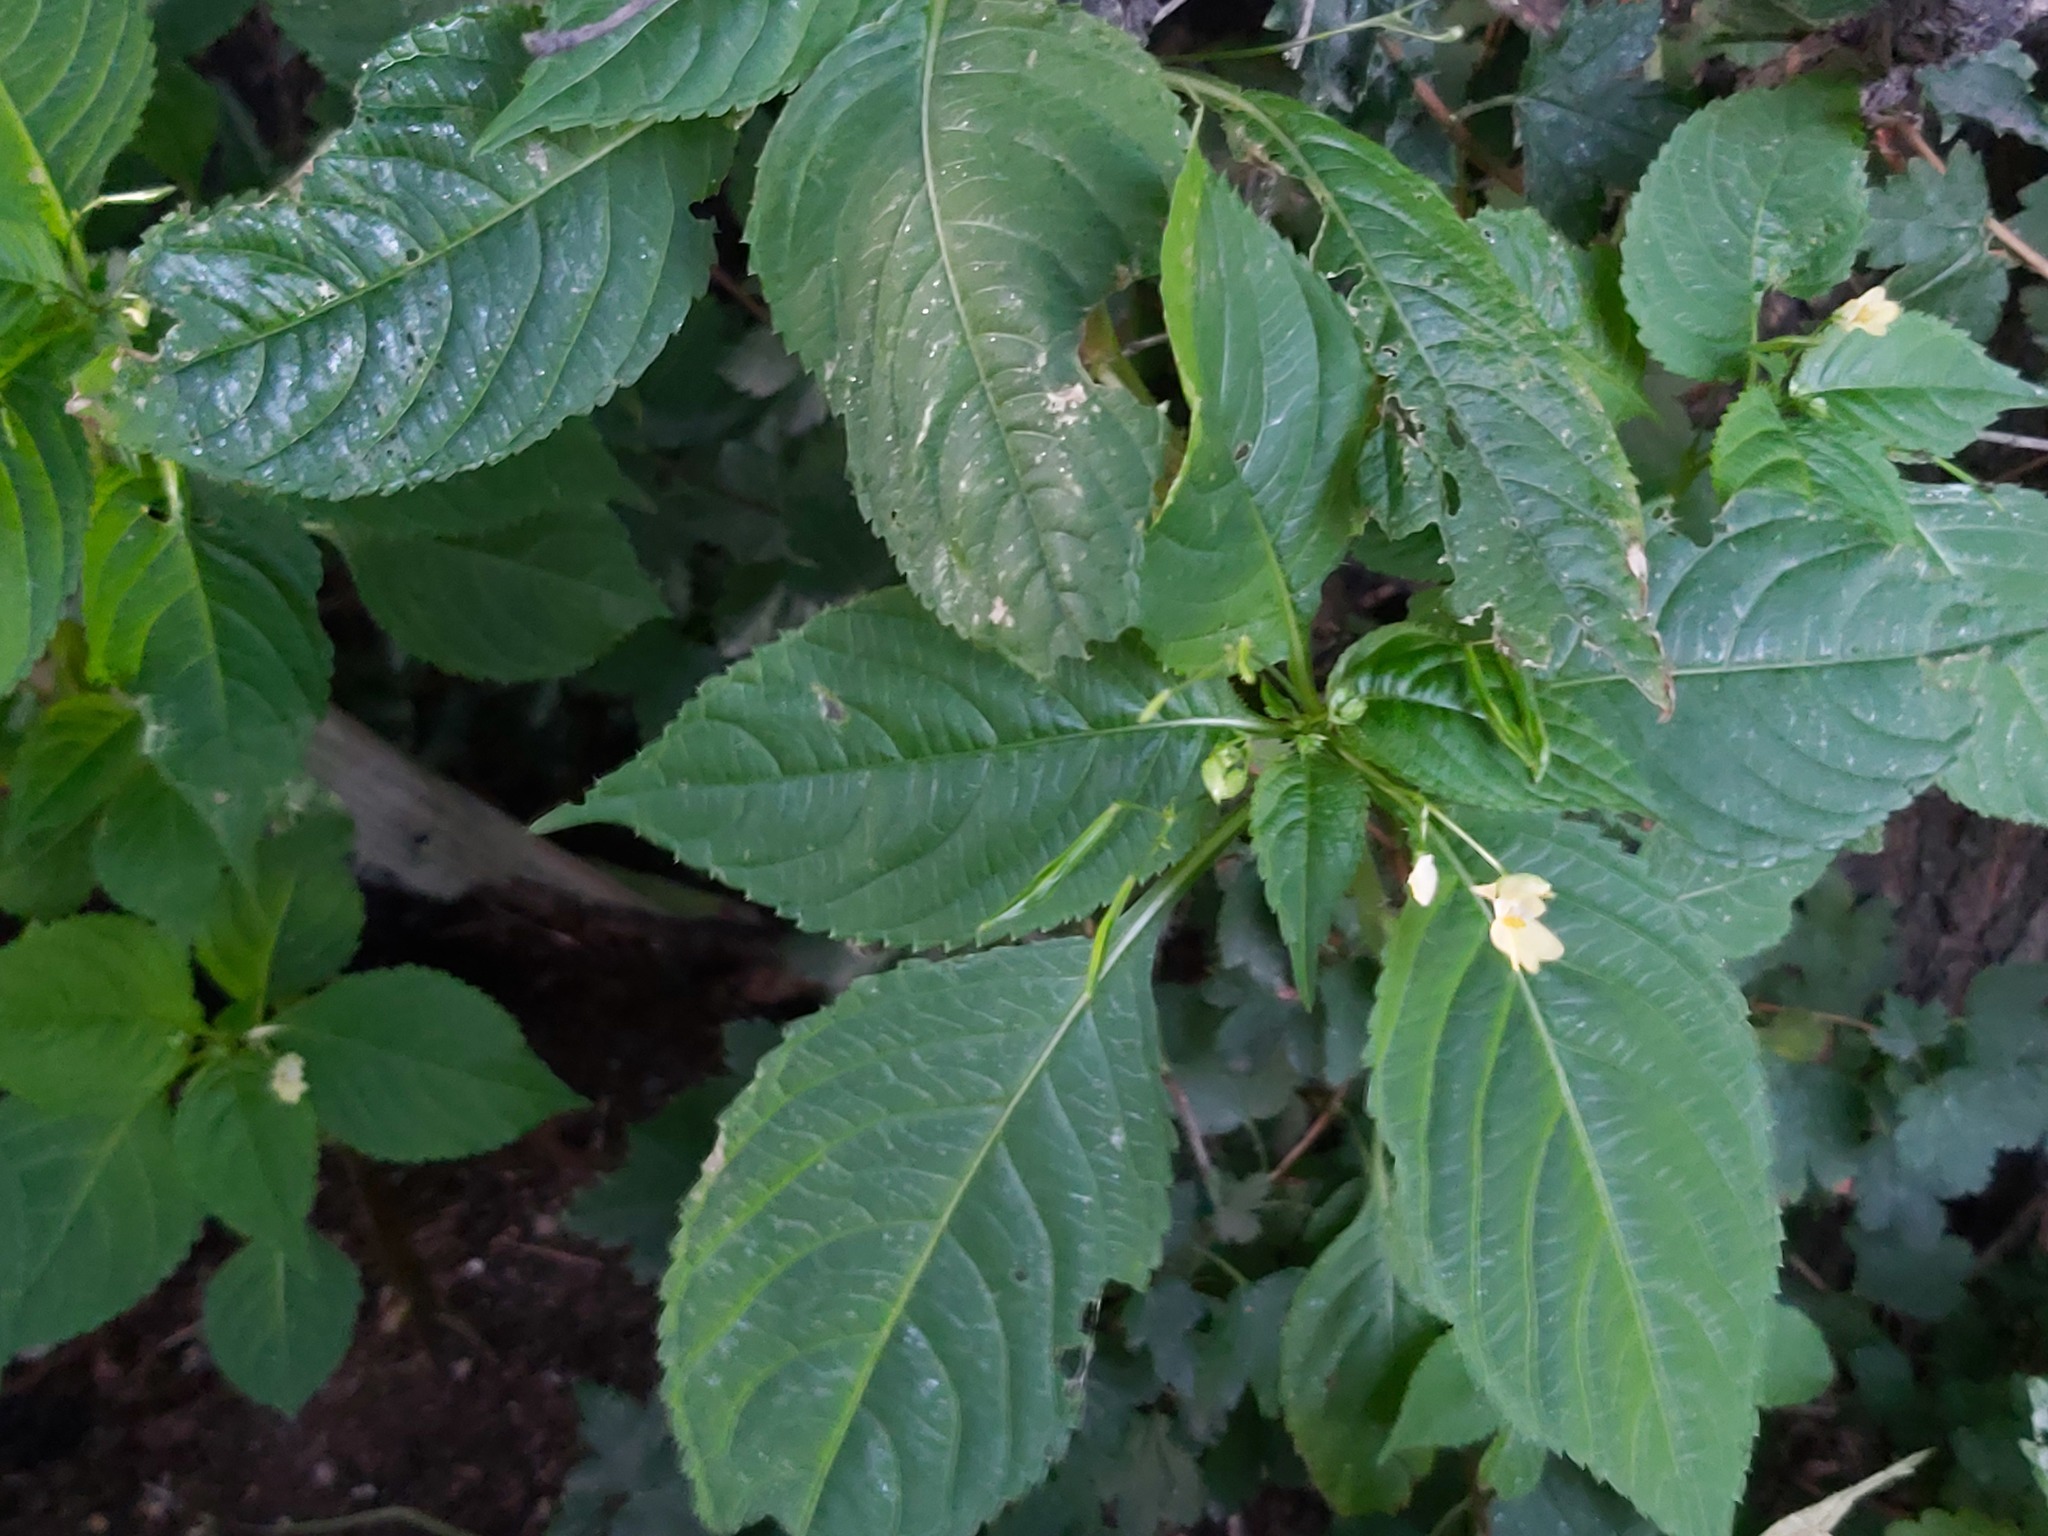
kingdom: Plantae
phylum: Tracheophyta
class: Magnoliopsida
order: Ericales
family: Balsaminaceae
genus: Impatiens
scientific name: Impatiens parviflora
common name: Small balsam
